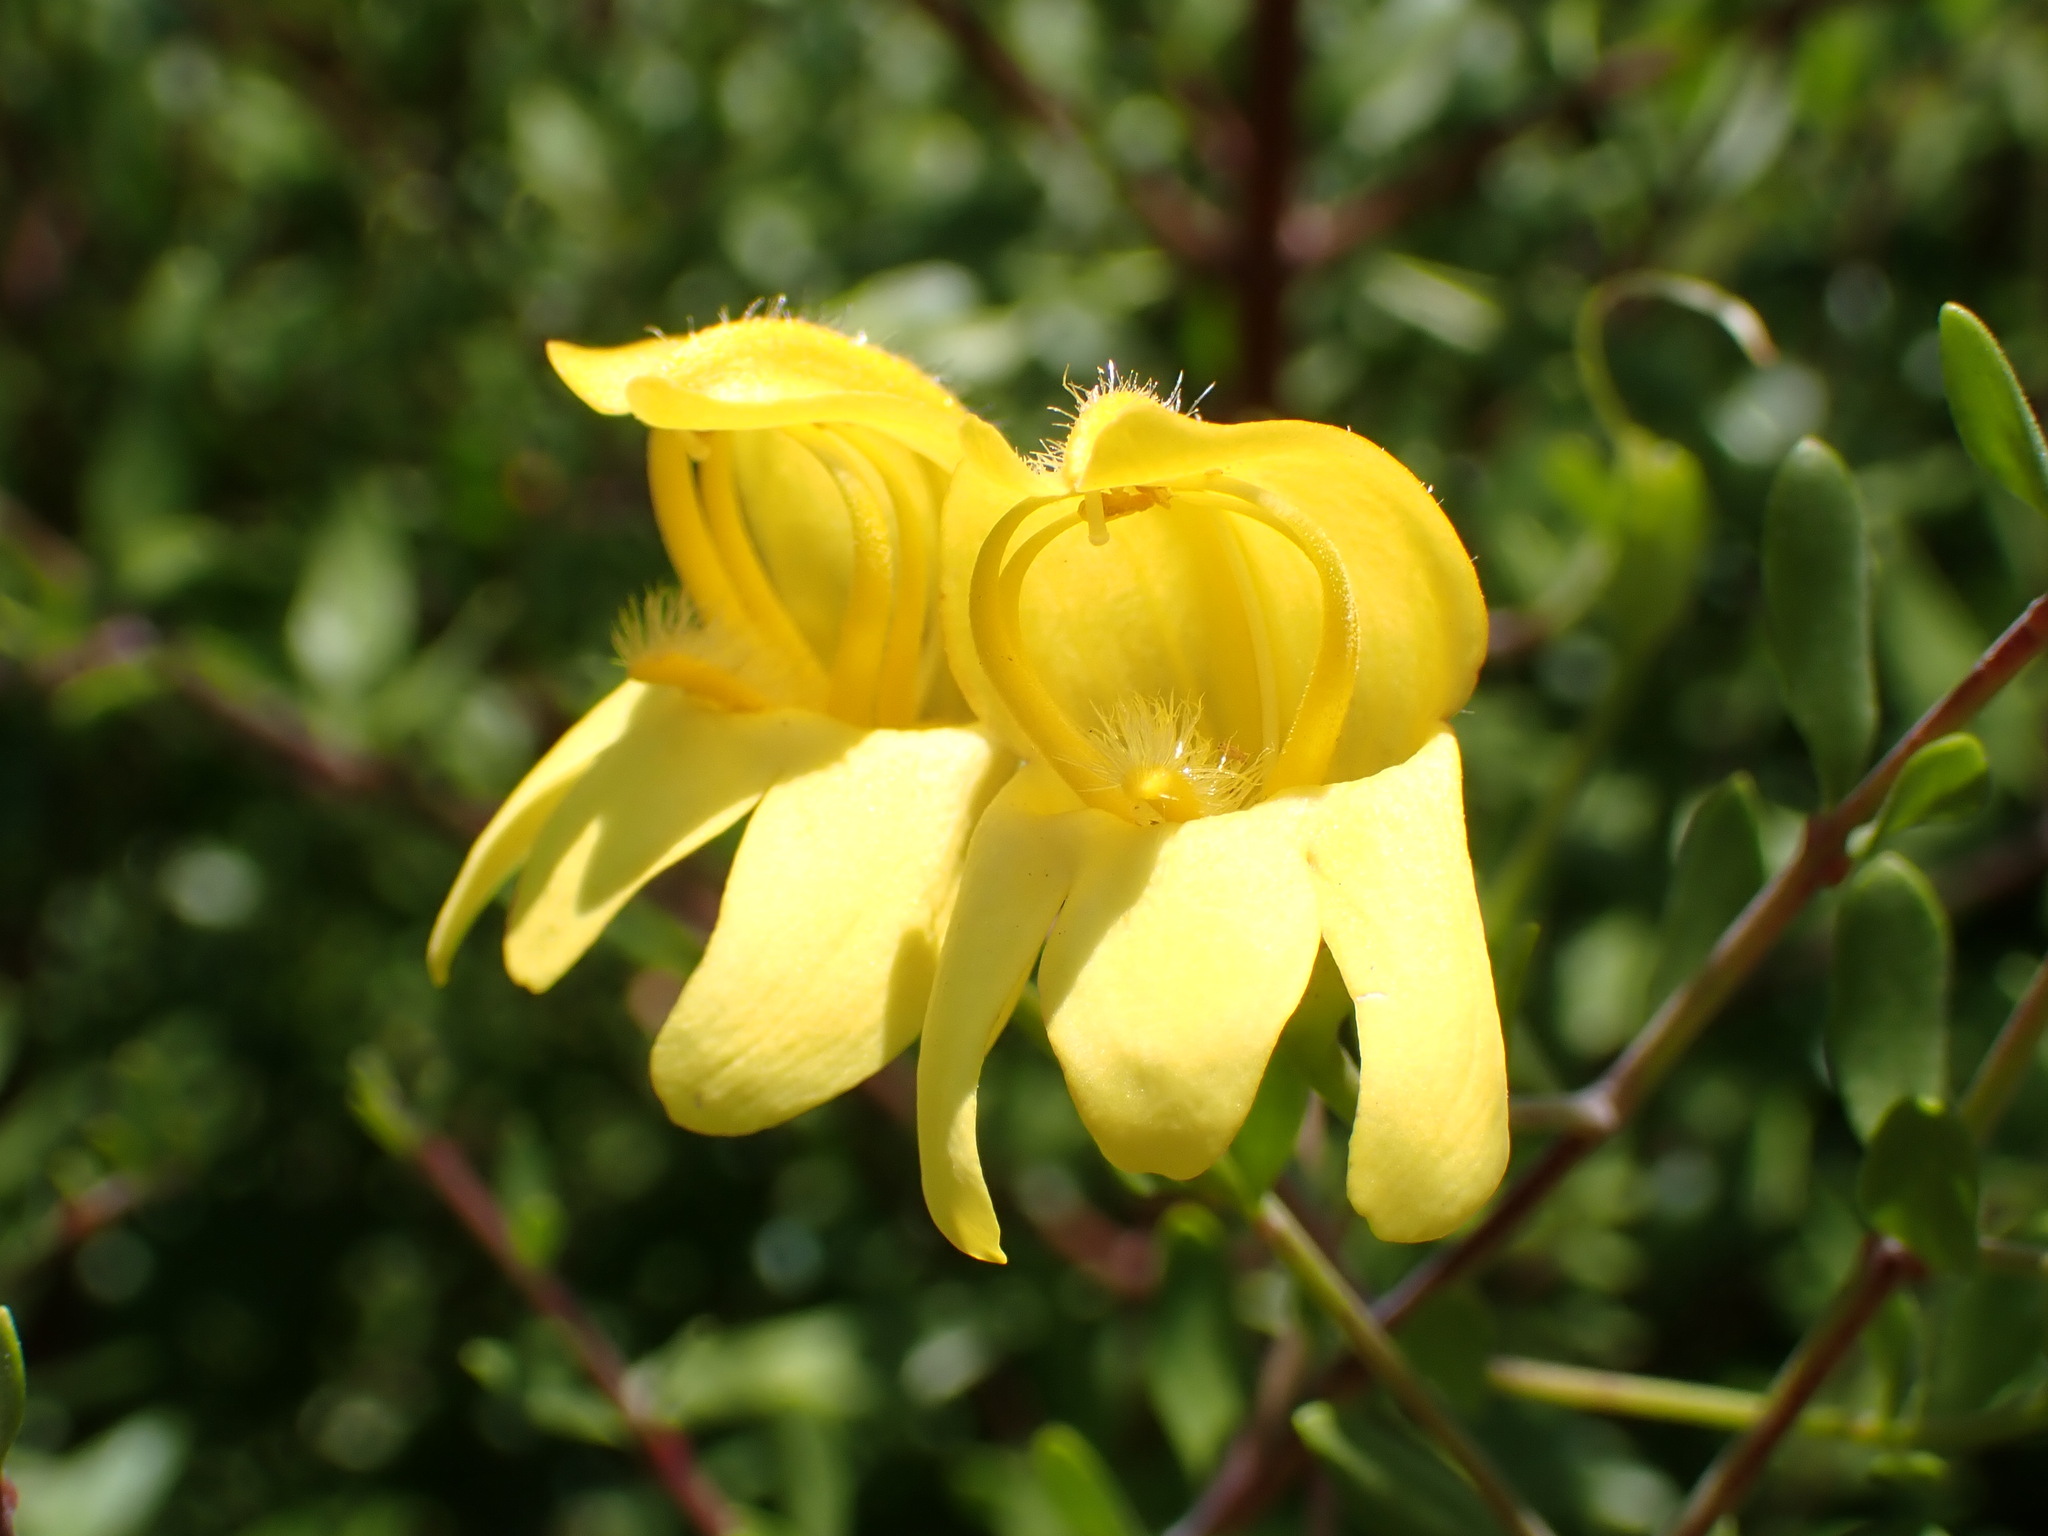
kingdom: Plantae
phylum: Tracheophyta
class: Magnoliopsida
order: Lamiales
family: Plantaginaceae
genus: Keckiella
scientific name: Keckiella antirrhinoides
